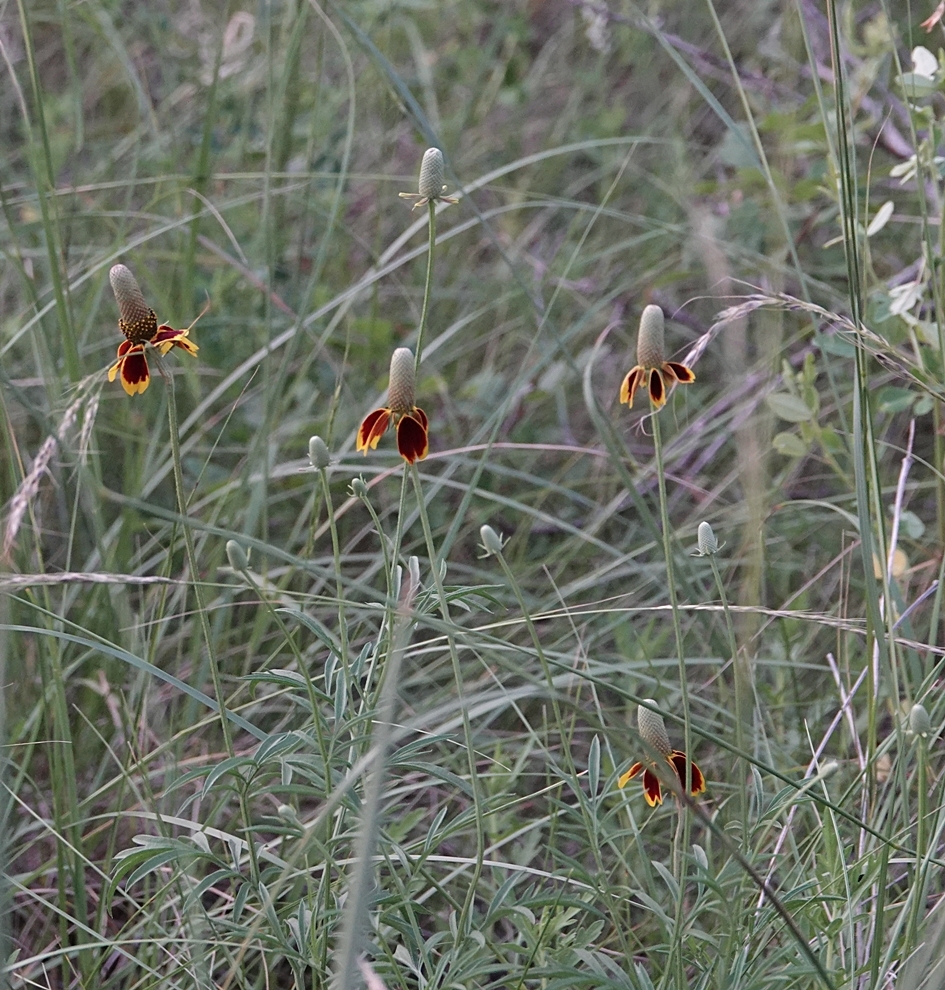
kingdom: Plantae
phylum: Tracheophyta
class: Magnoliopsida
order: Asterales
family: Asteraceae
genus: Ratibida
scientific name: Ratibida columnifera
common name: Prairie coneflower
